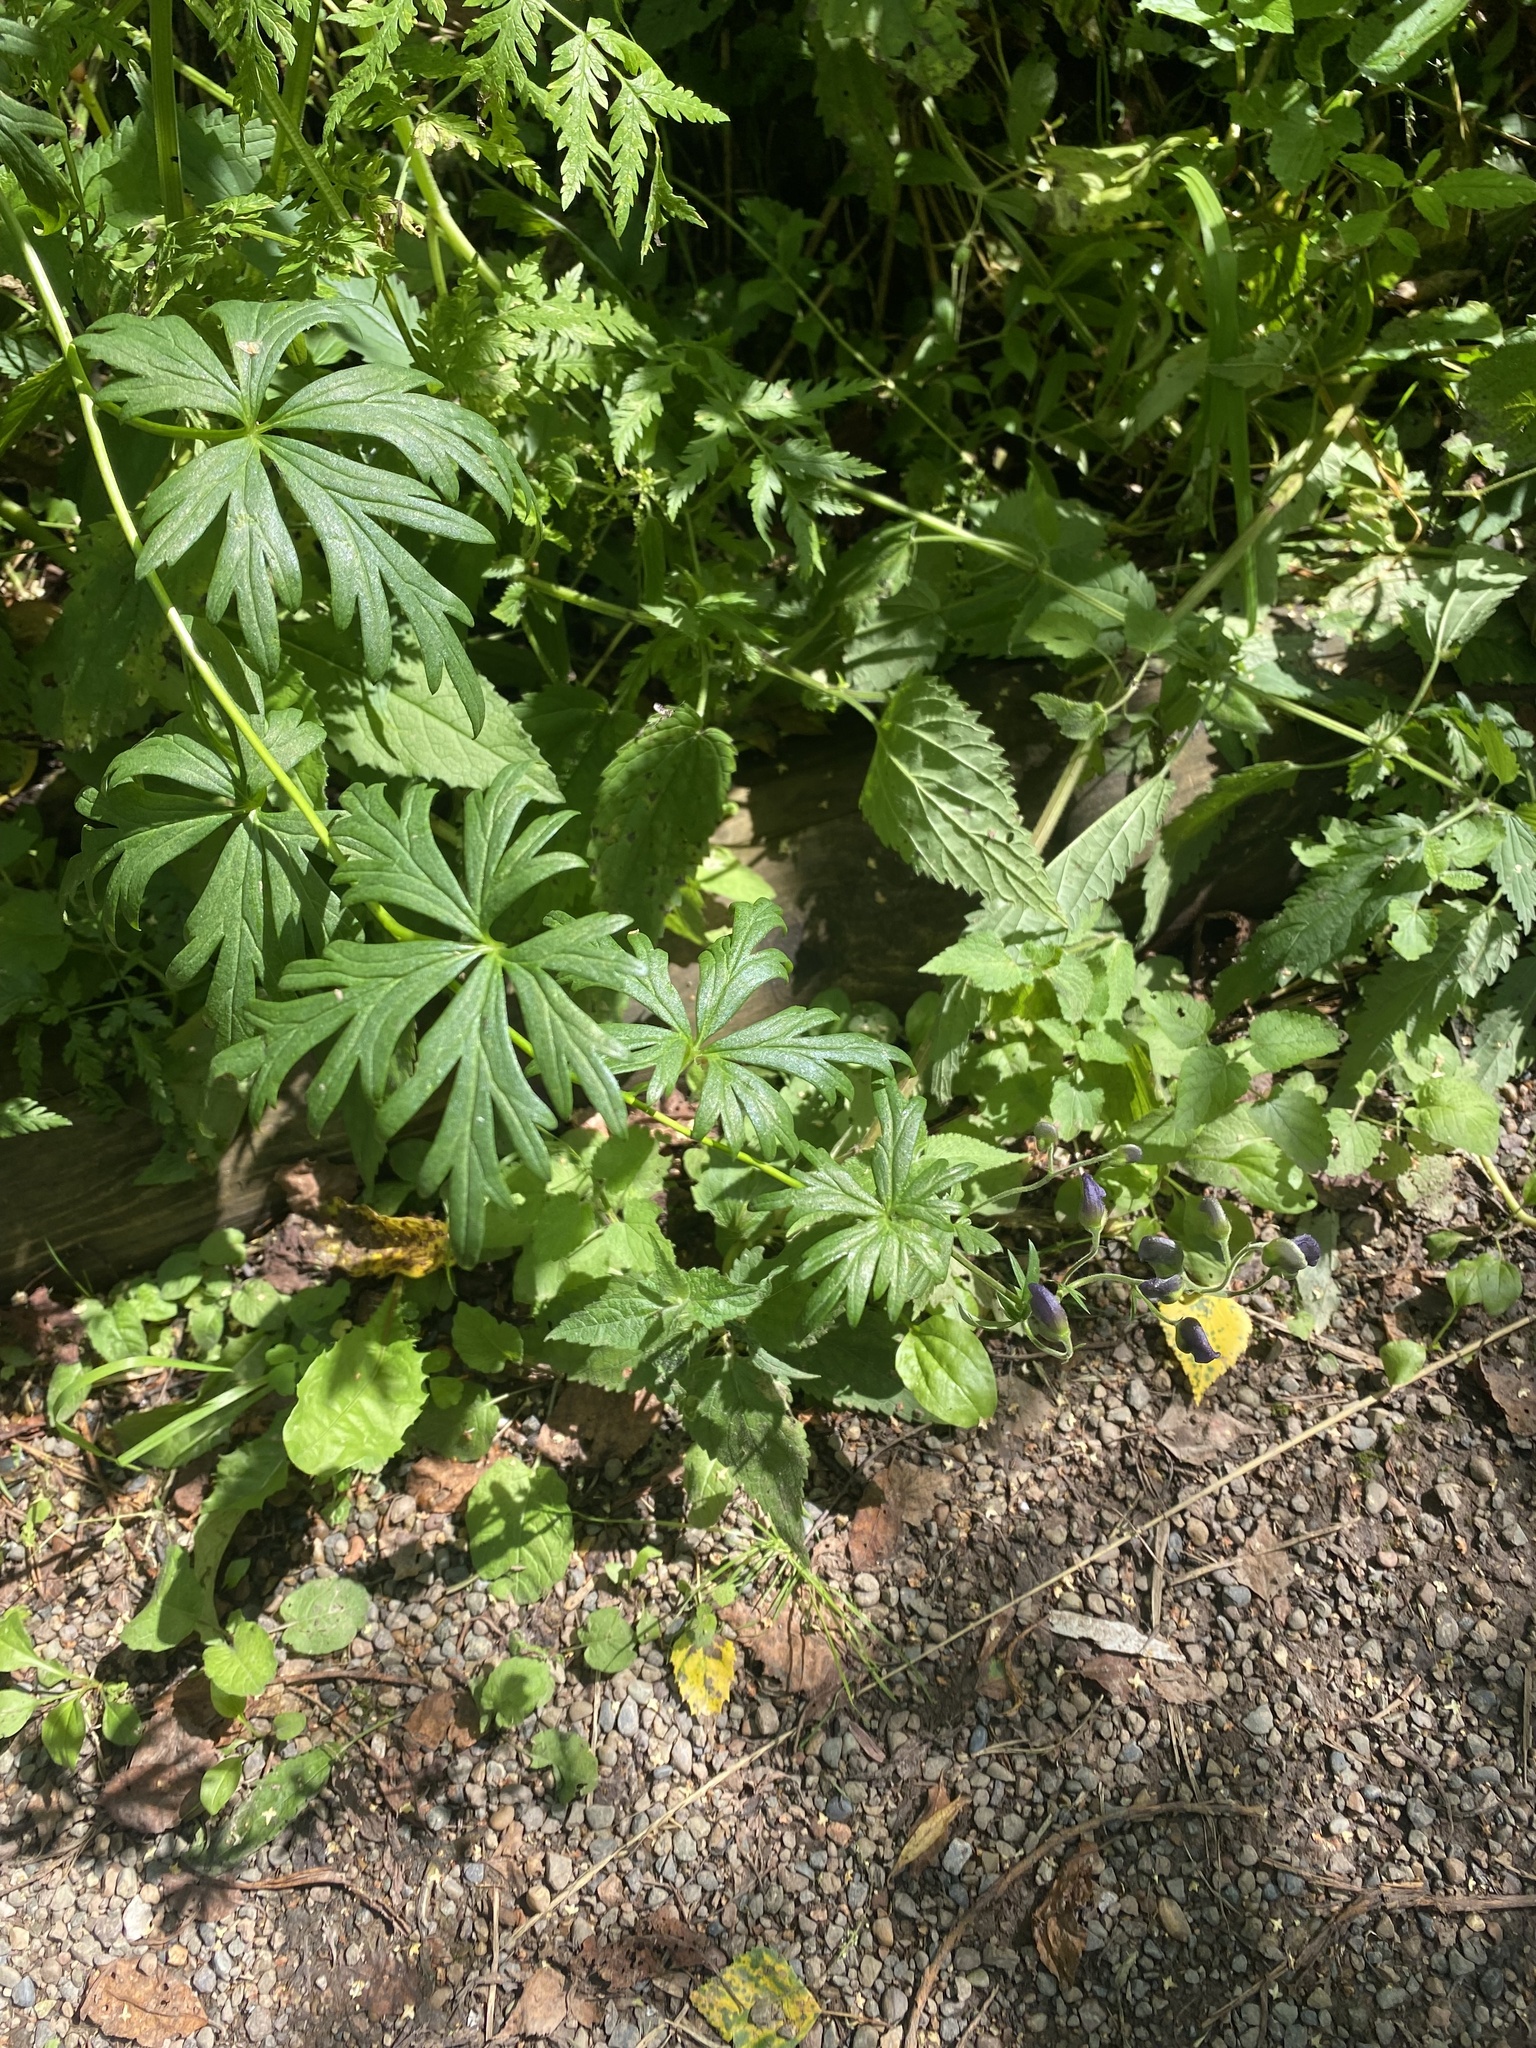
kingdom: Plantae
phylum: Tracheophyta
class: Magnoliopsida
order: Ranunculales
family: Ranunculaceae
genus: Aconitum
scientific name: Aconitum volubile
